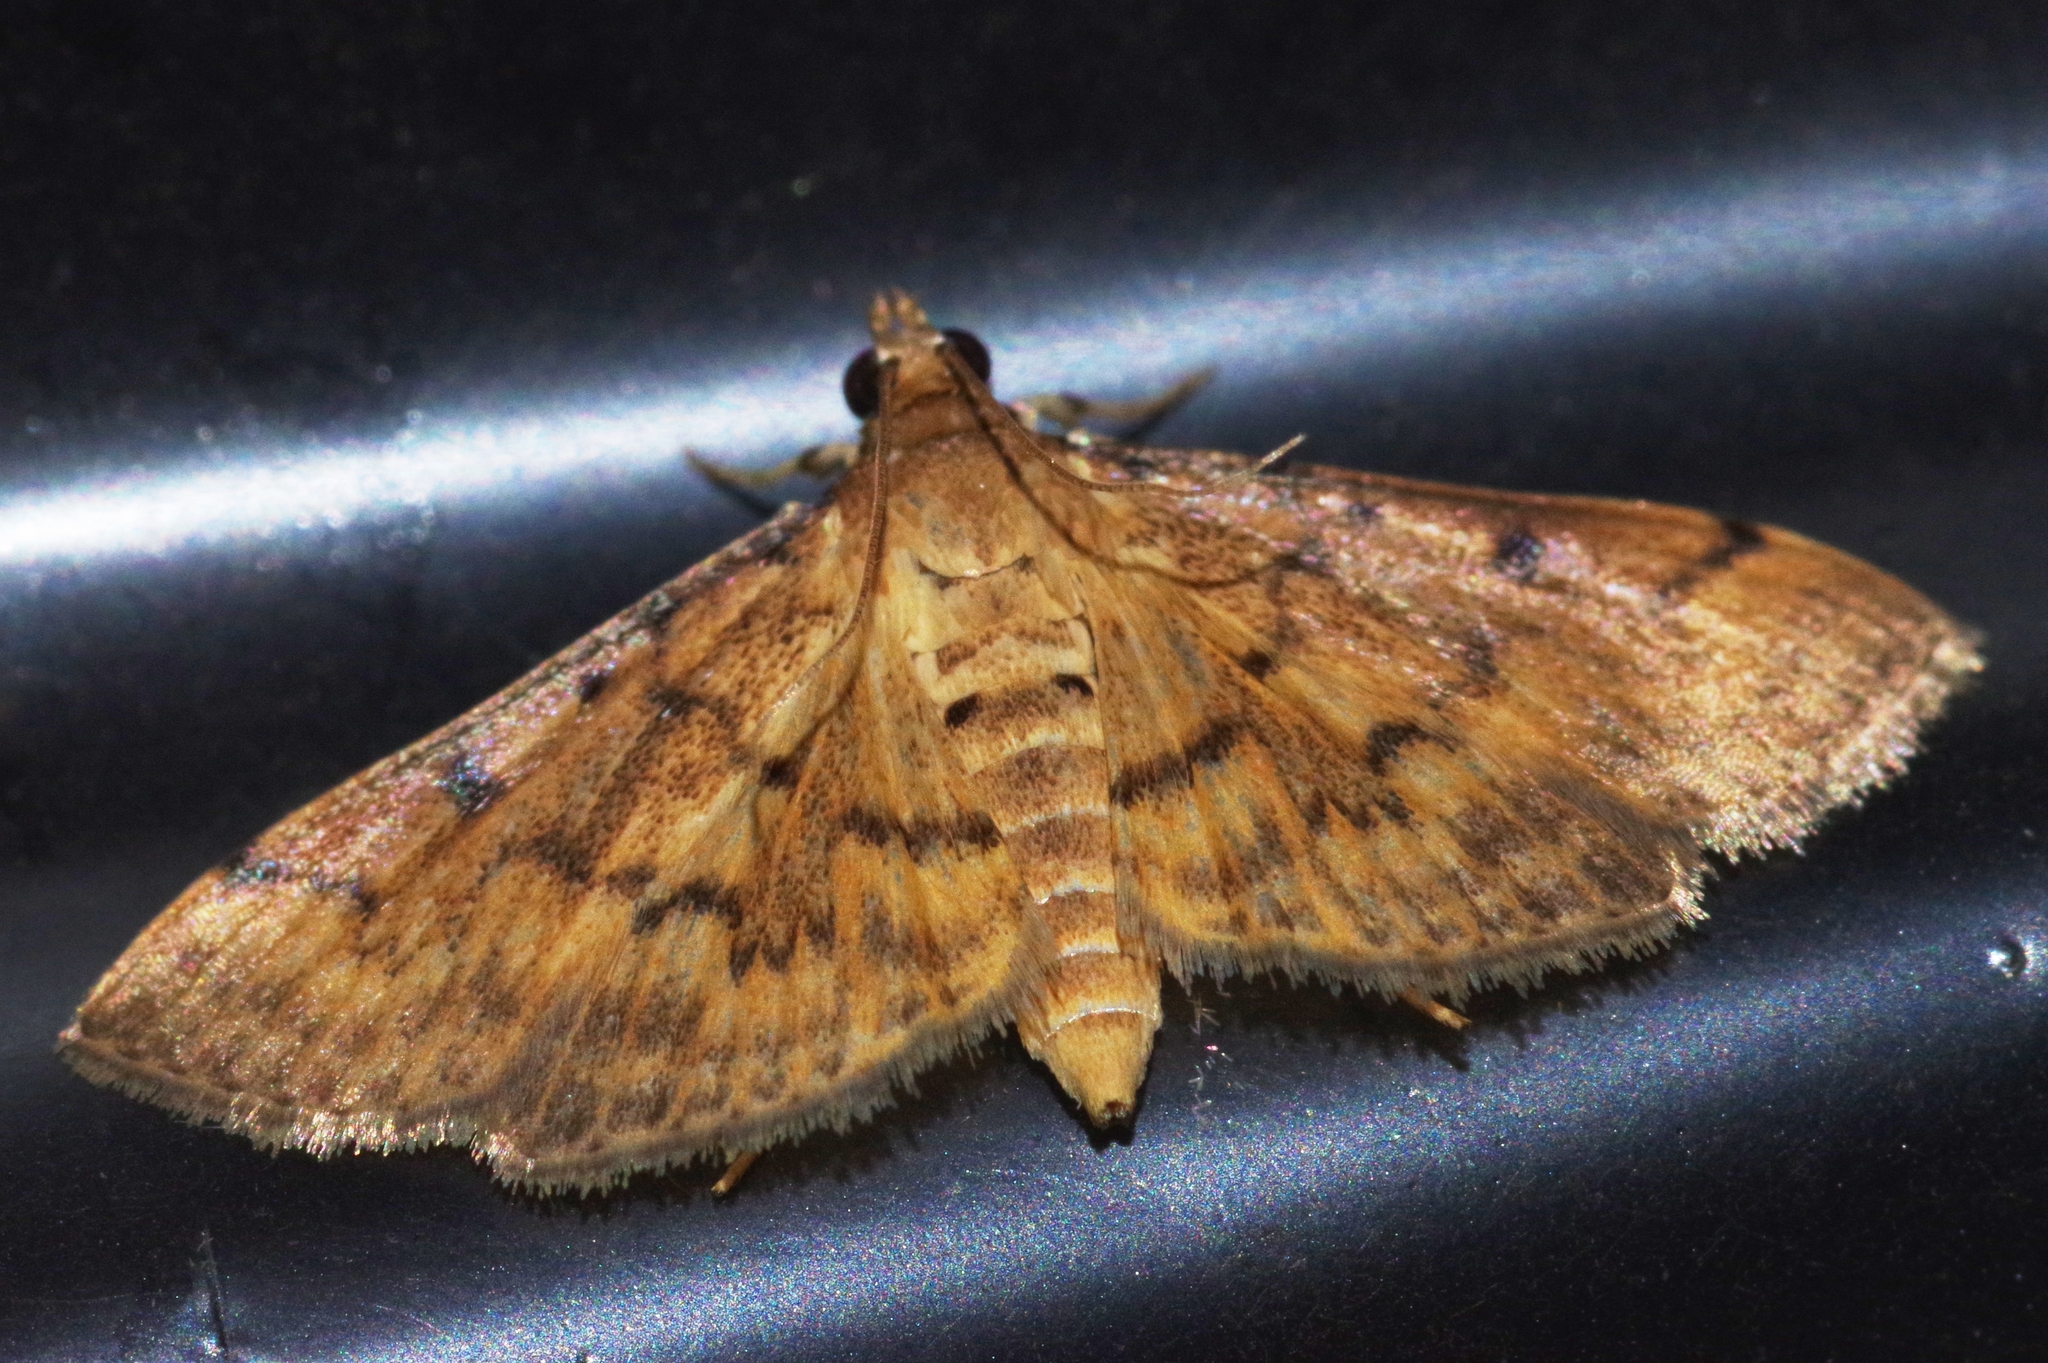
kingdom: Animalia
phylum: Arthropoda
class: Insecta
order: Lepidoptera
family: Crambidae
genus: Herpetogramma
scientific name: Herpetogramma submarginalis
